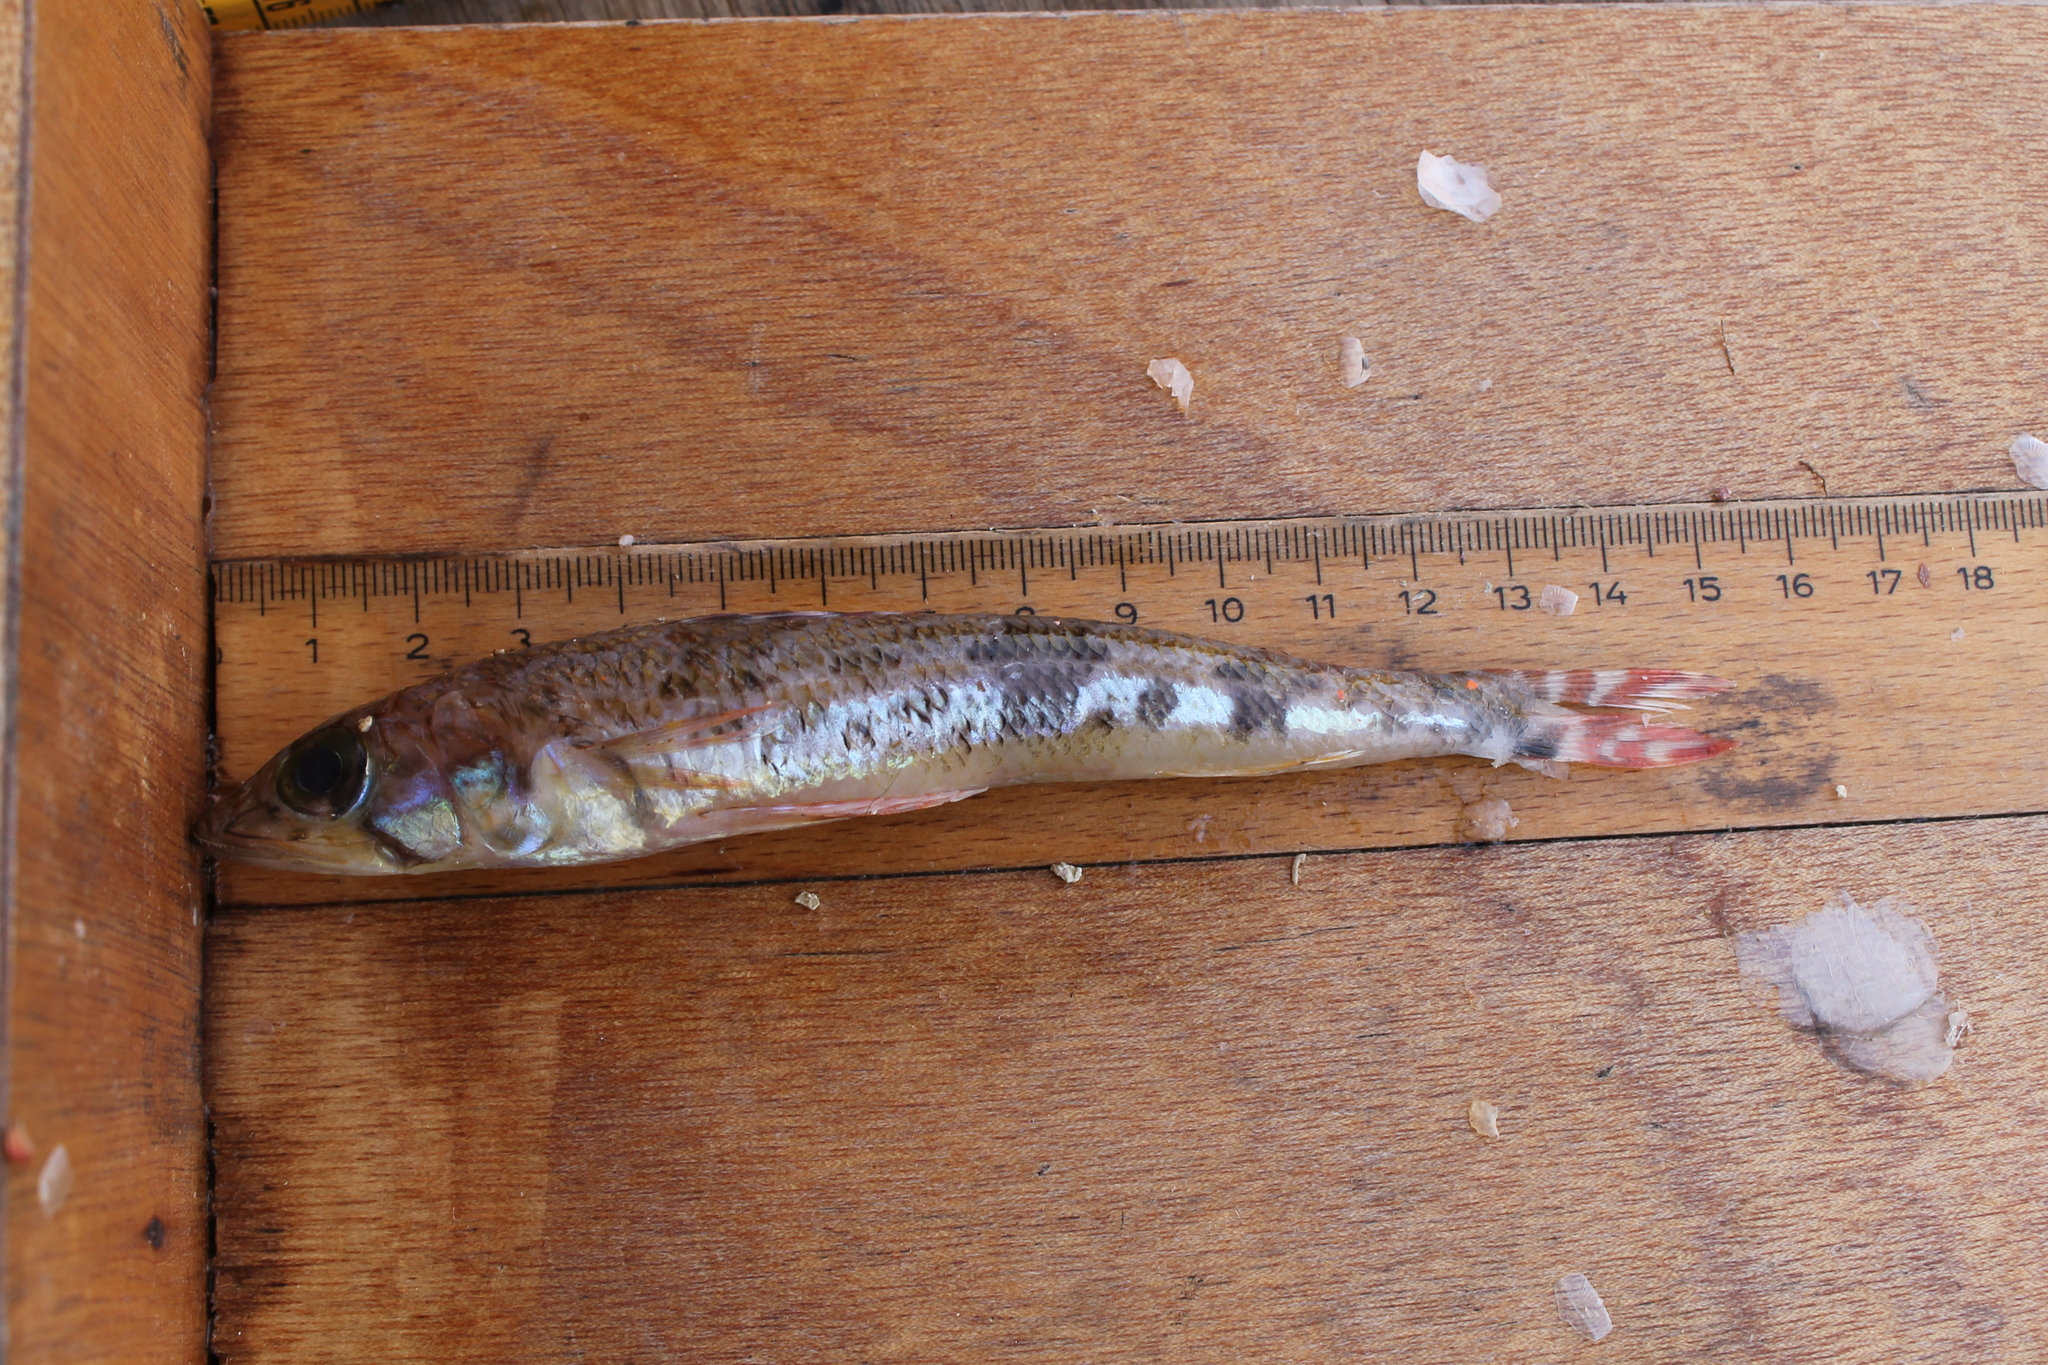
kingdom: Animalia
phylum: Chordata
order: Aulopiformes
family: Aulopidae
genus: Aulopus
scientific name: Aulopus filamentosus
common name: Royal flagfin
